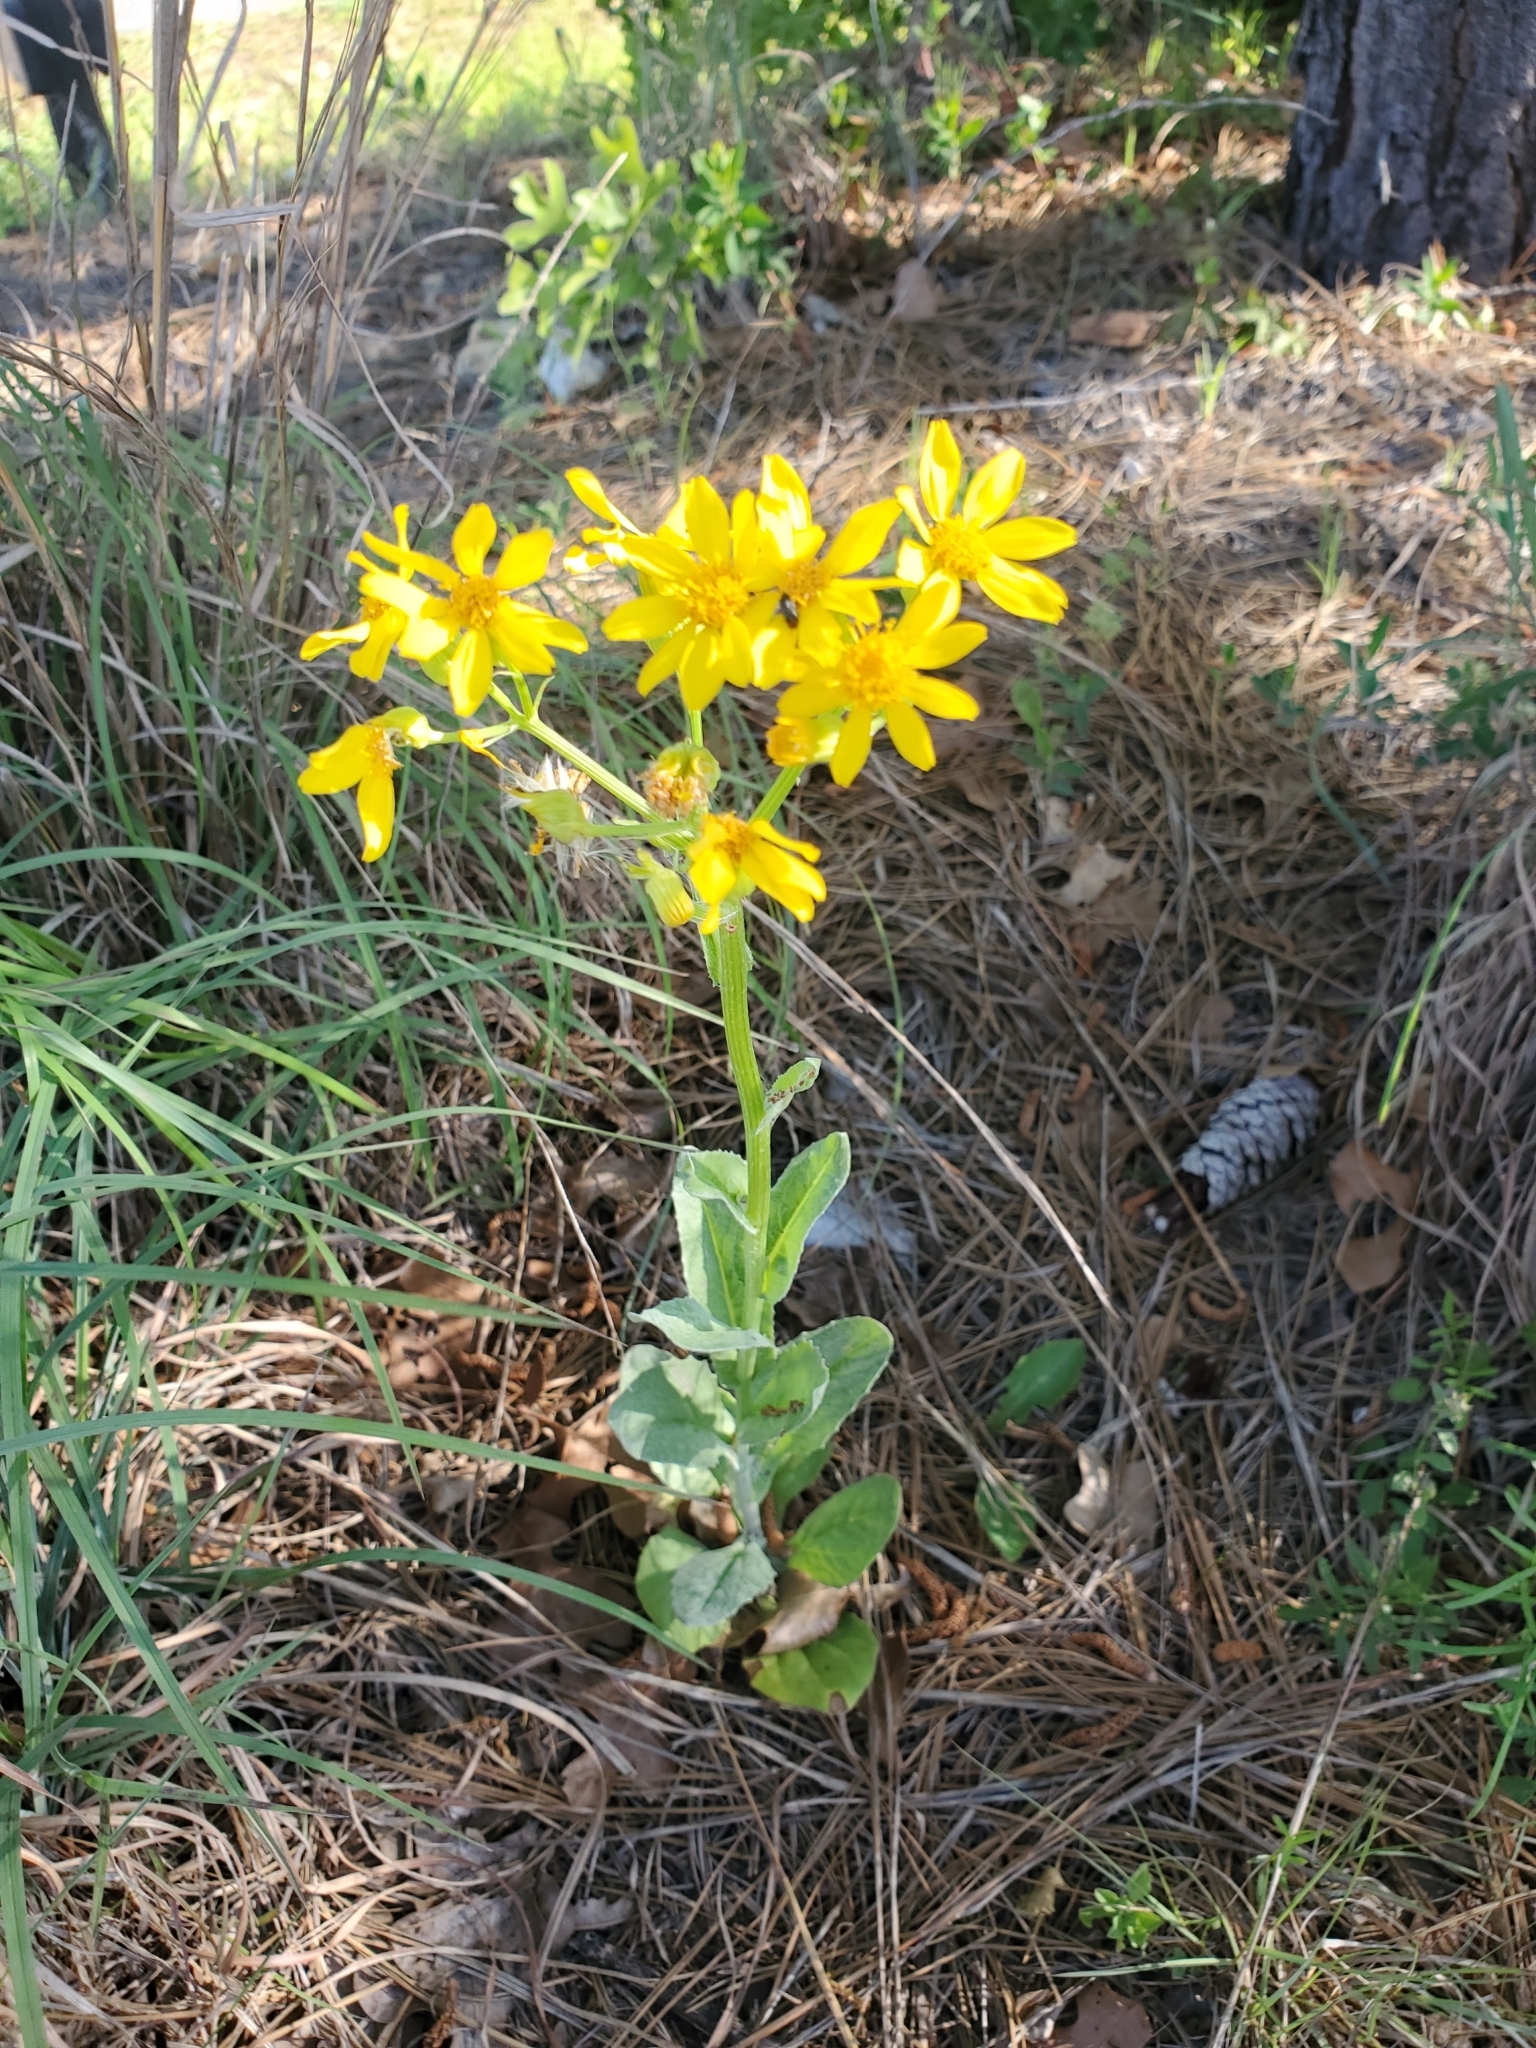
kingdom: Plantae
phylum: Tracheophyta
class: Magnoliopsida
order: Asterales
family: Asteraceae
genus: Senecio
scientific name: Senecio ampullaceus
